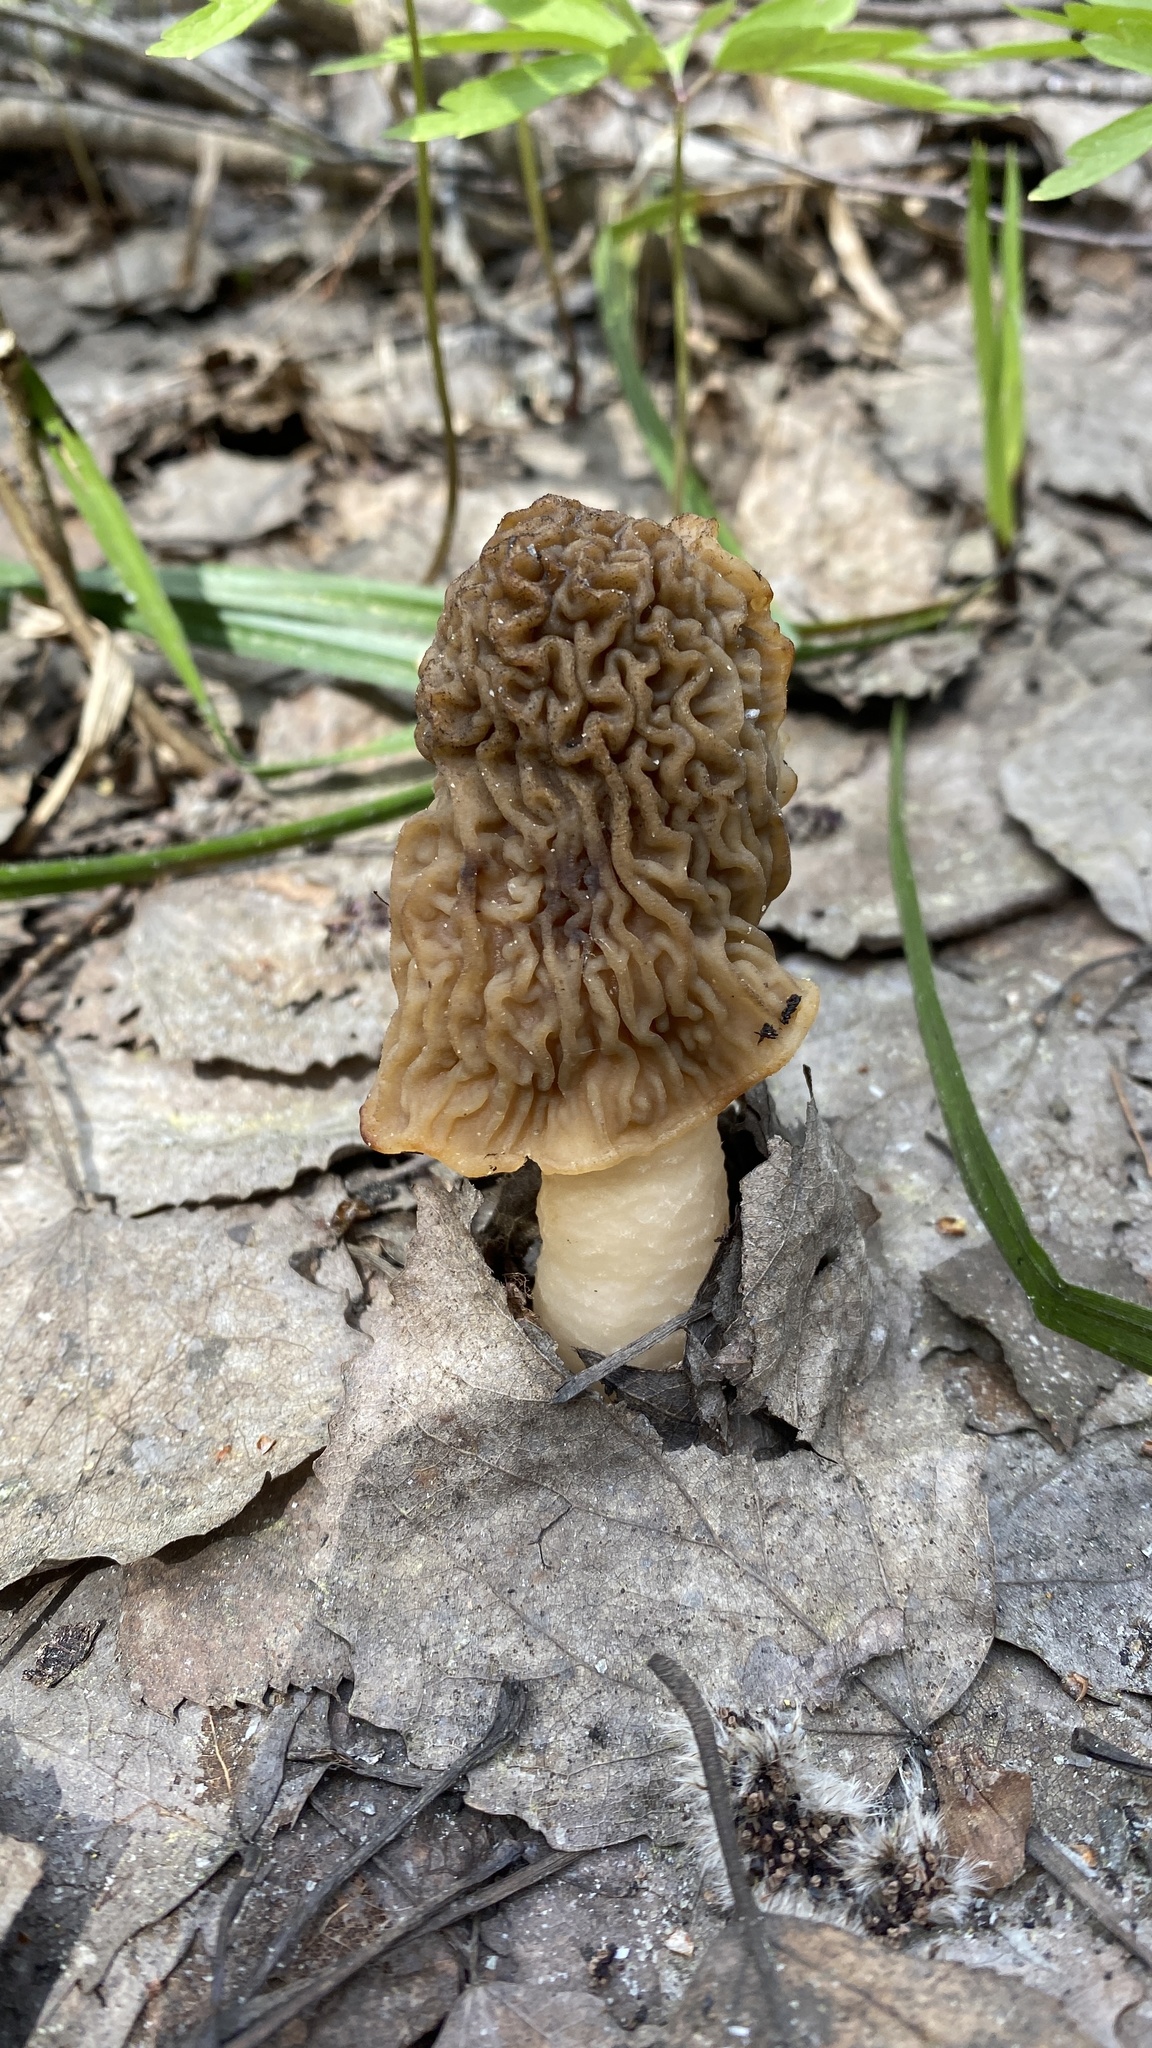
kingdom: Fungi
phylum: Ascomycota
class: Pezizomycetes
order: Pezizales
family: Morchellaceae
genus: Verpa
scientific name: Verpa bohemica
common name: Wrinkled thimble morel
